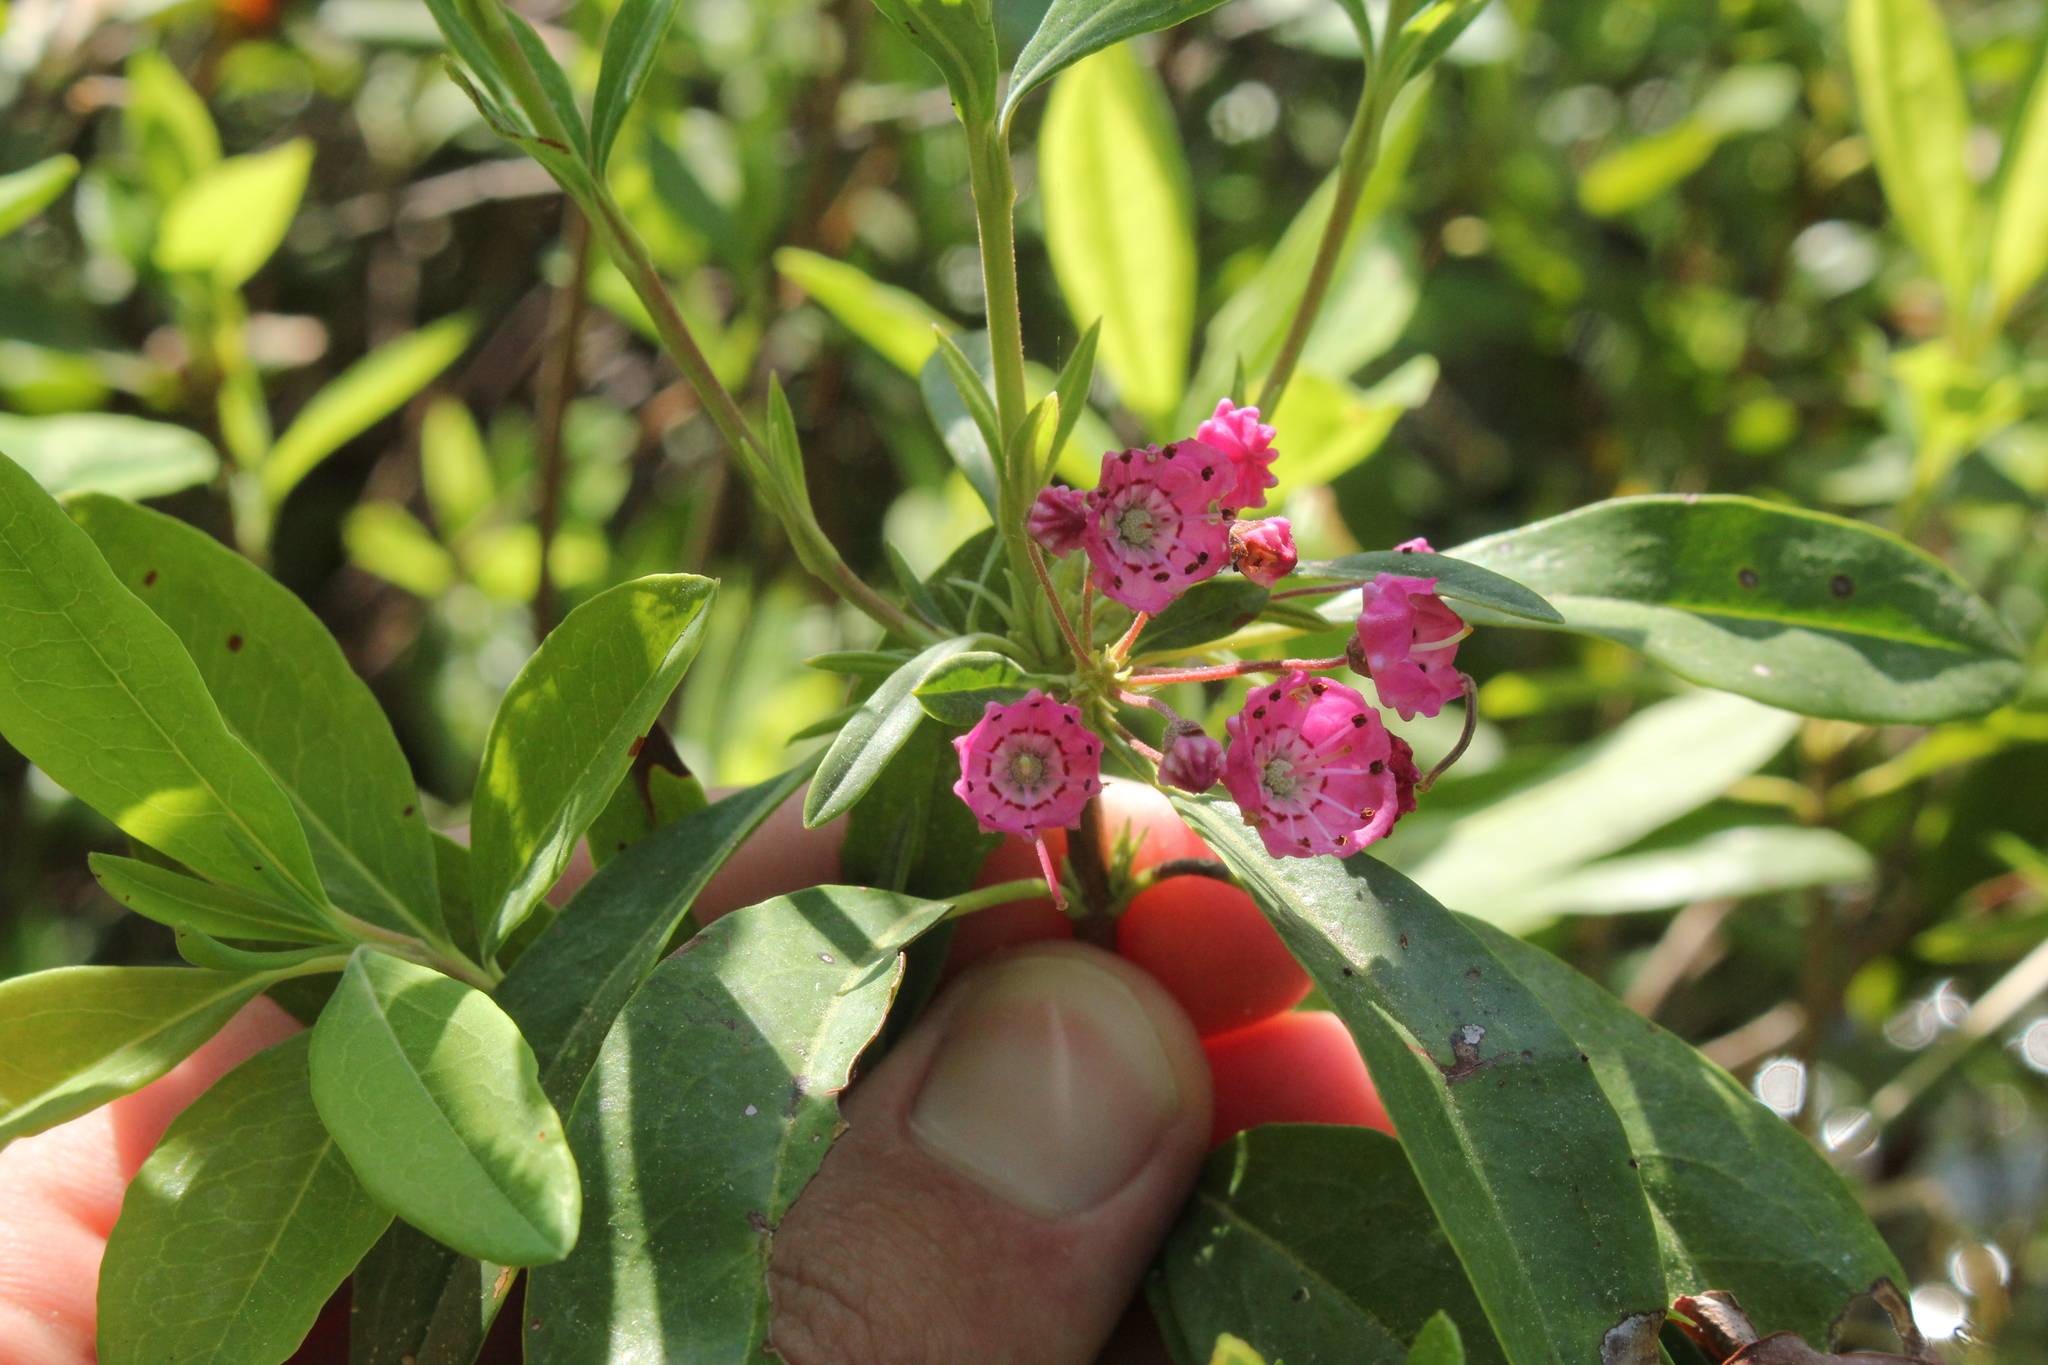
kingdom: Plantae
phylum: Tracheophyta
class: Magnoliopsida
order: Ericales
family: Ericaceae
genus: Kalmia
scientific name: Kalmia angustifolia
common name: Sheep-laurel
